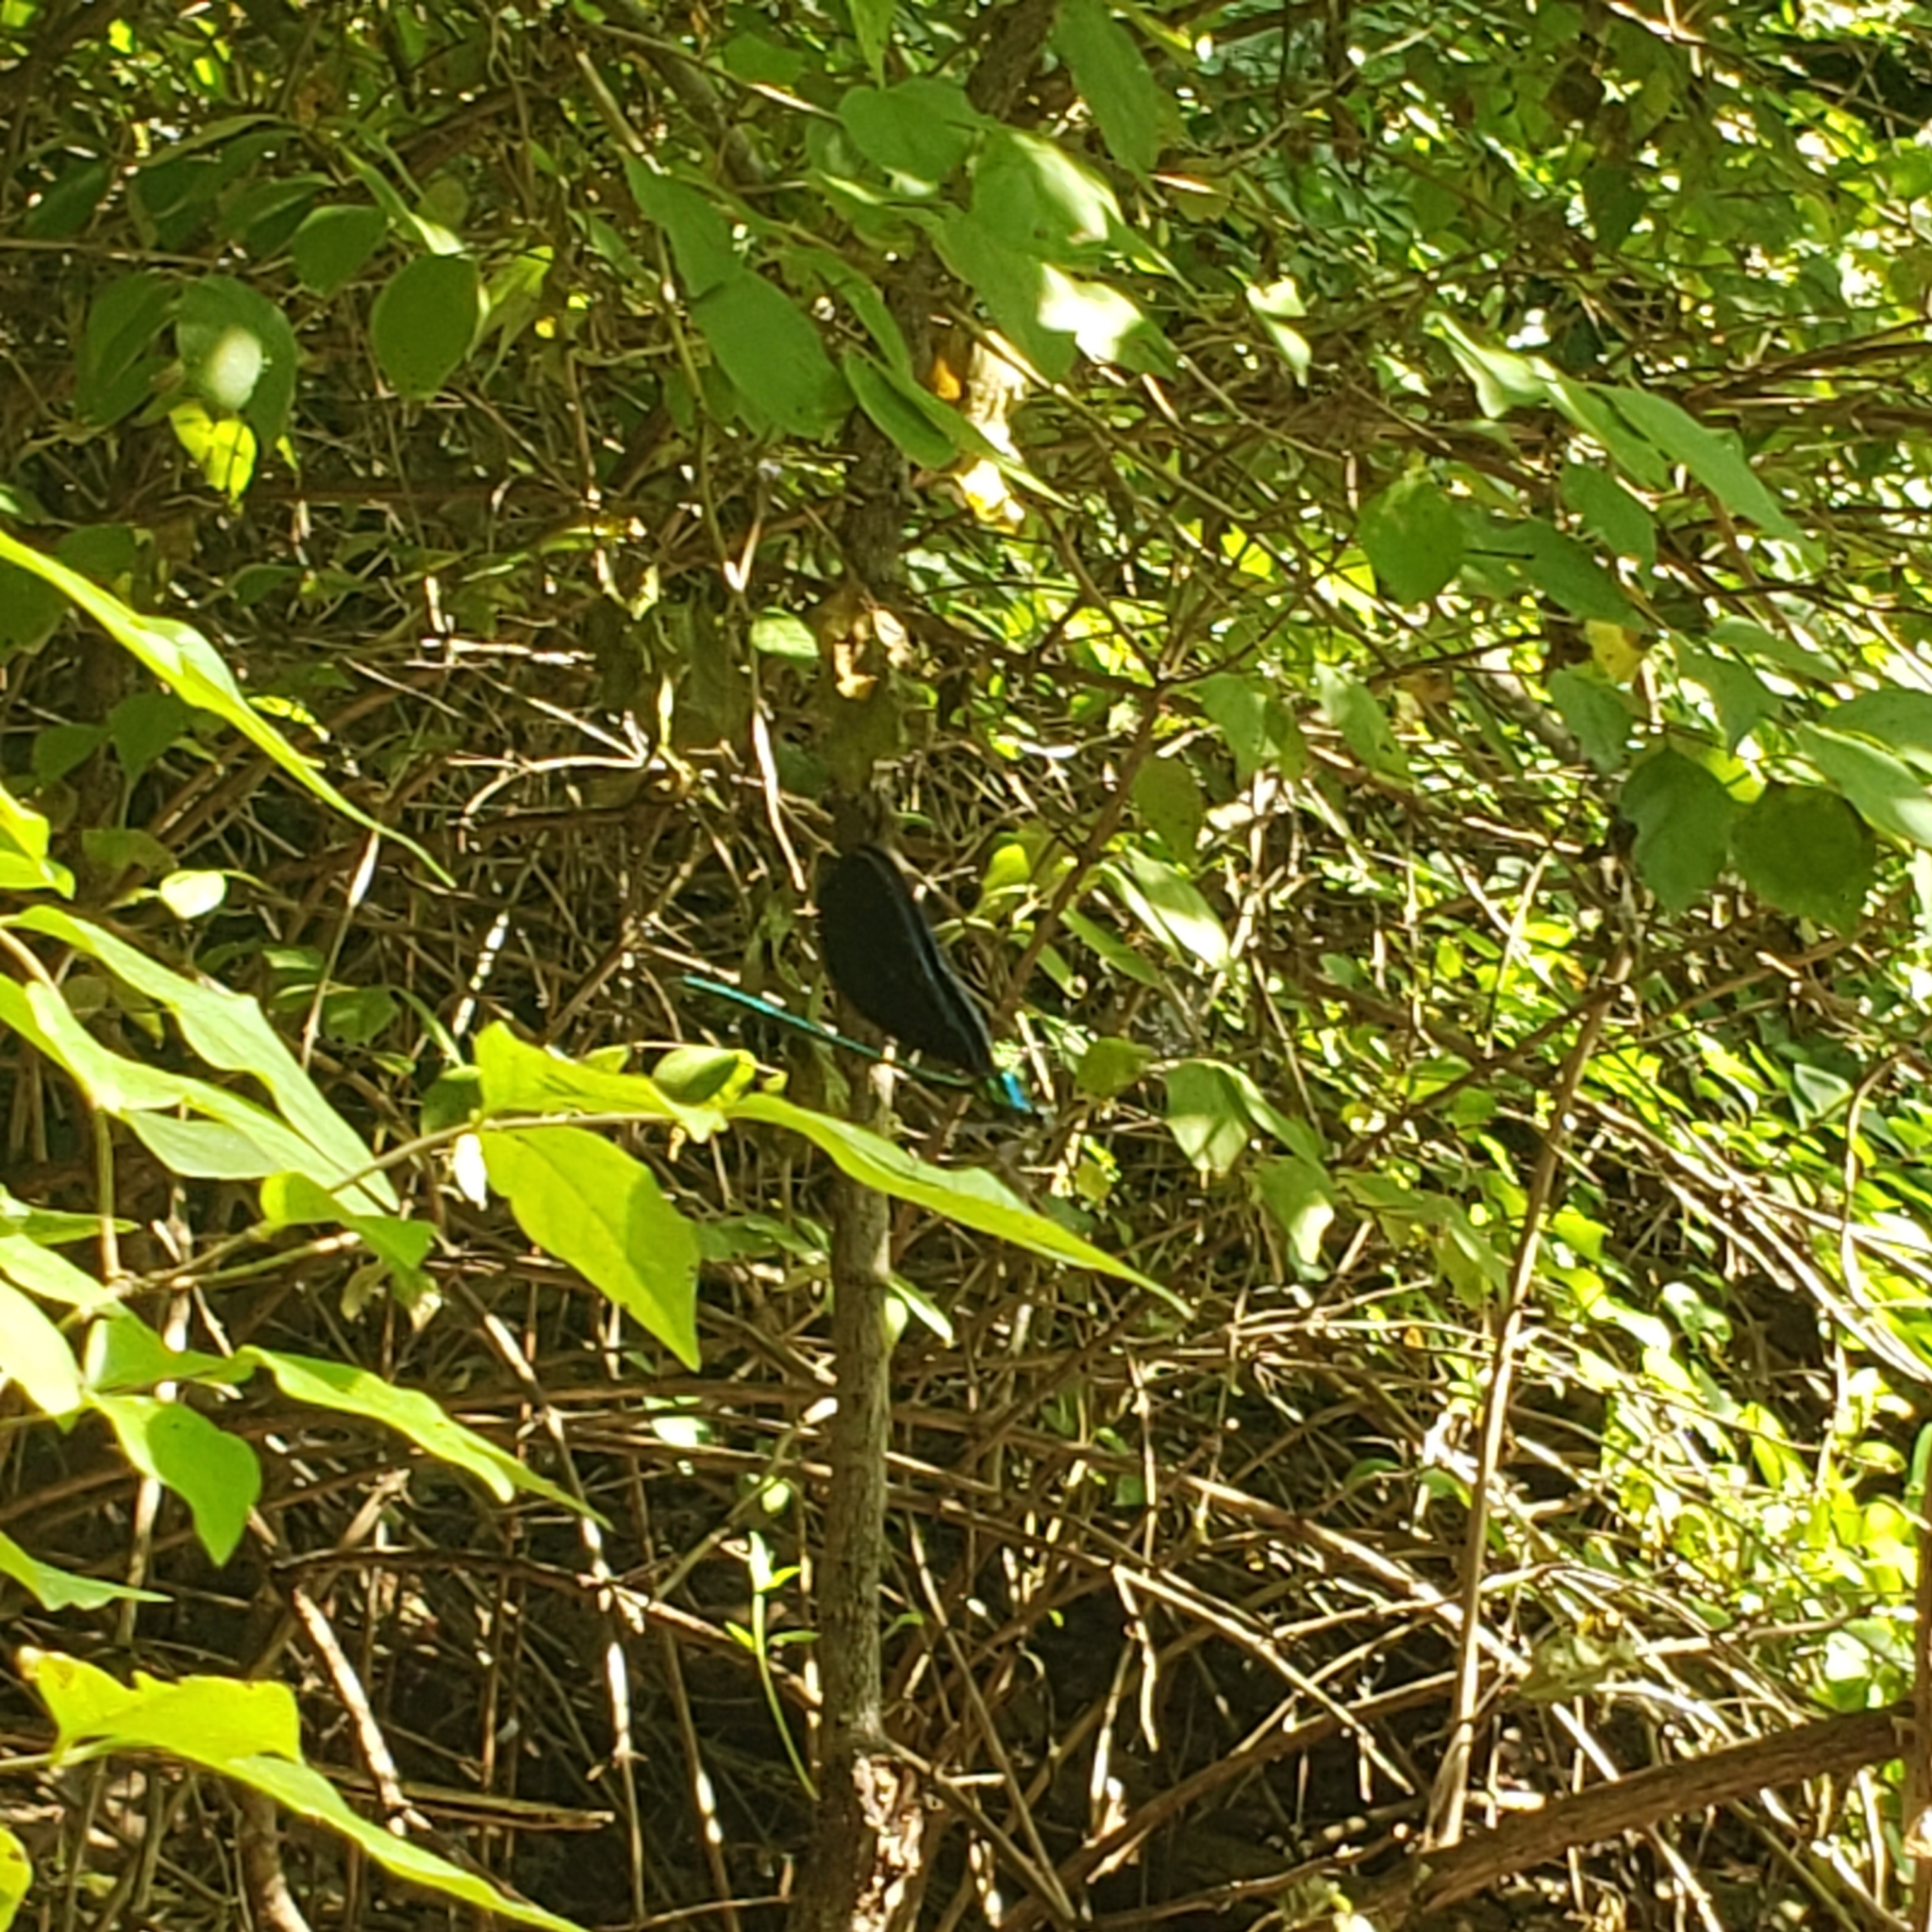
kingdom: Animalia
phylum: Arthropoda
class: Insecta
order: Odonata
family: Calopterygidae
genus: Calopteryx
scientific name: Calopteryx maculata
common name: Ebony jewelwing
